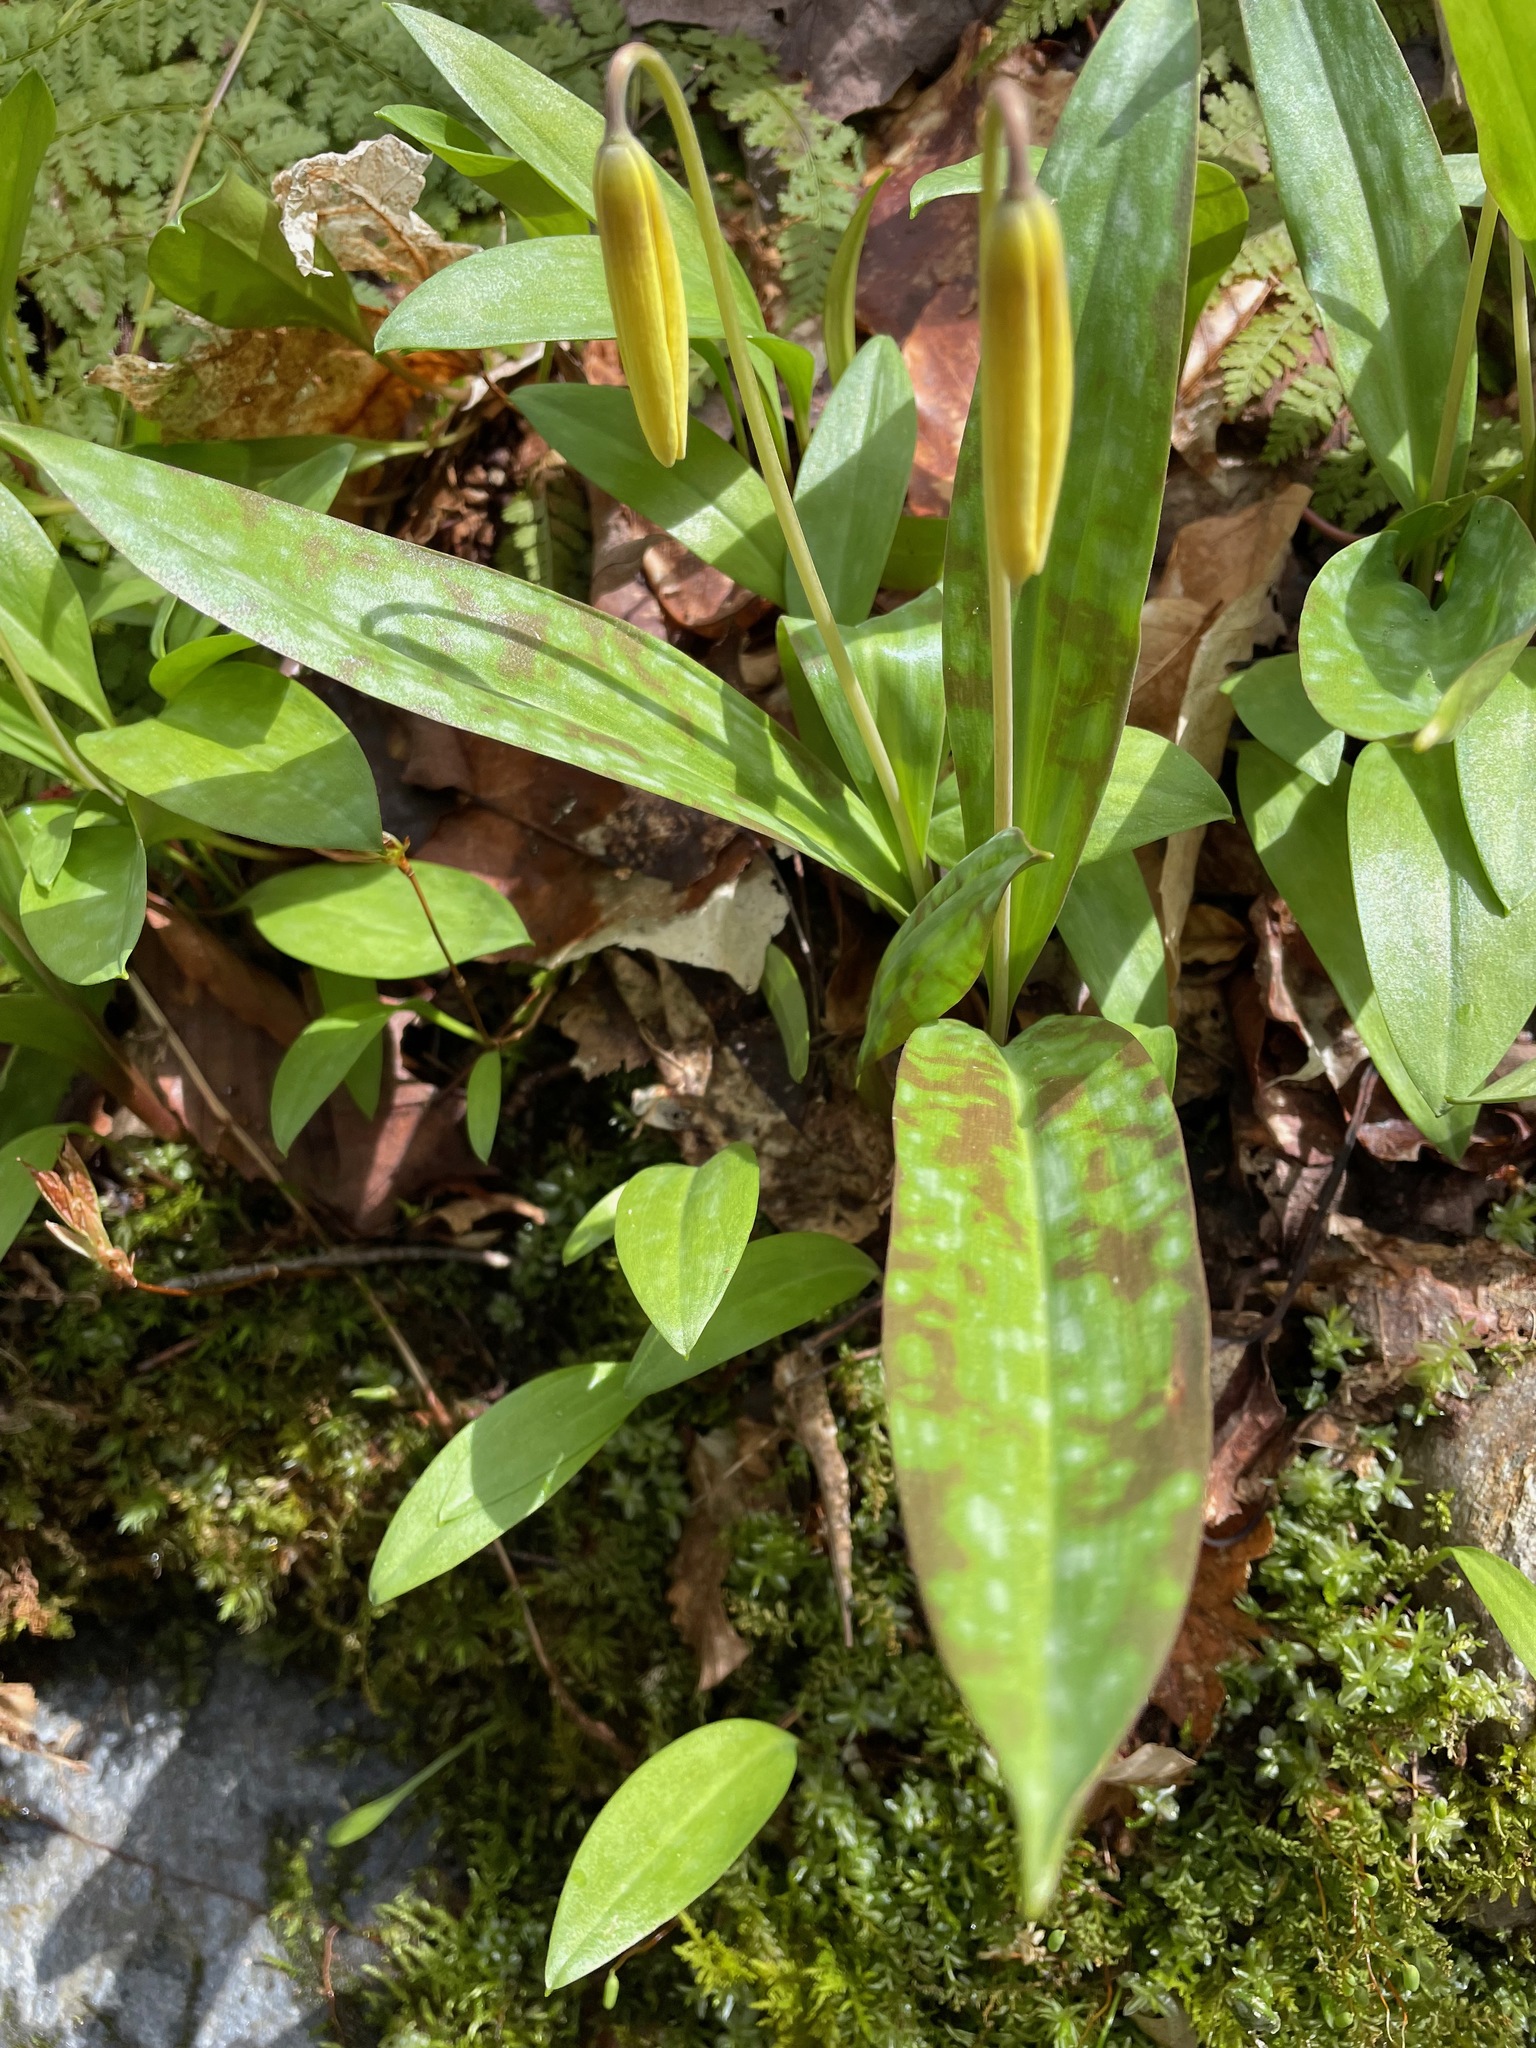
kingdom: Plantae
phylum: Tracheophyta
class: Liliopsida
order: Liliales
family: Liliaceae
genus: Erythronium
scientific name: Erythronium americanum
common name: Yellow adder's-tongue
